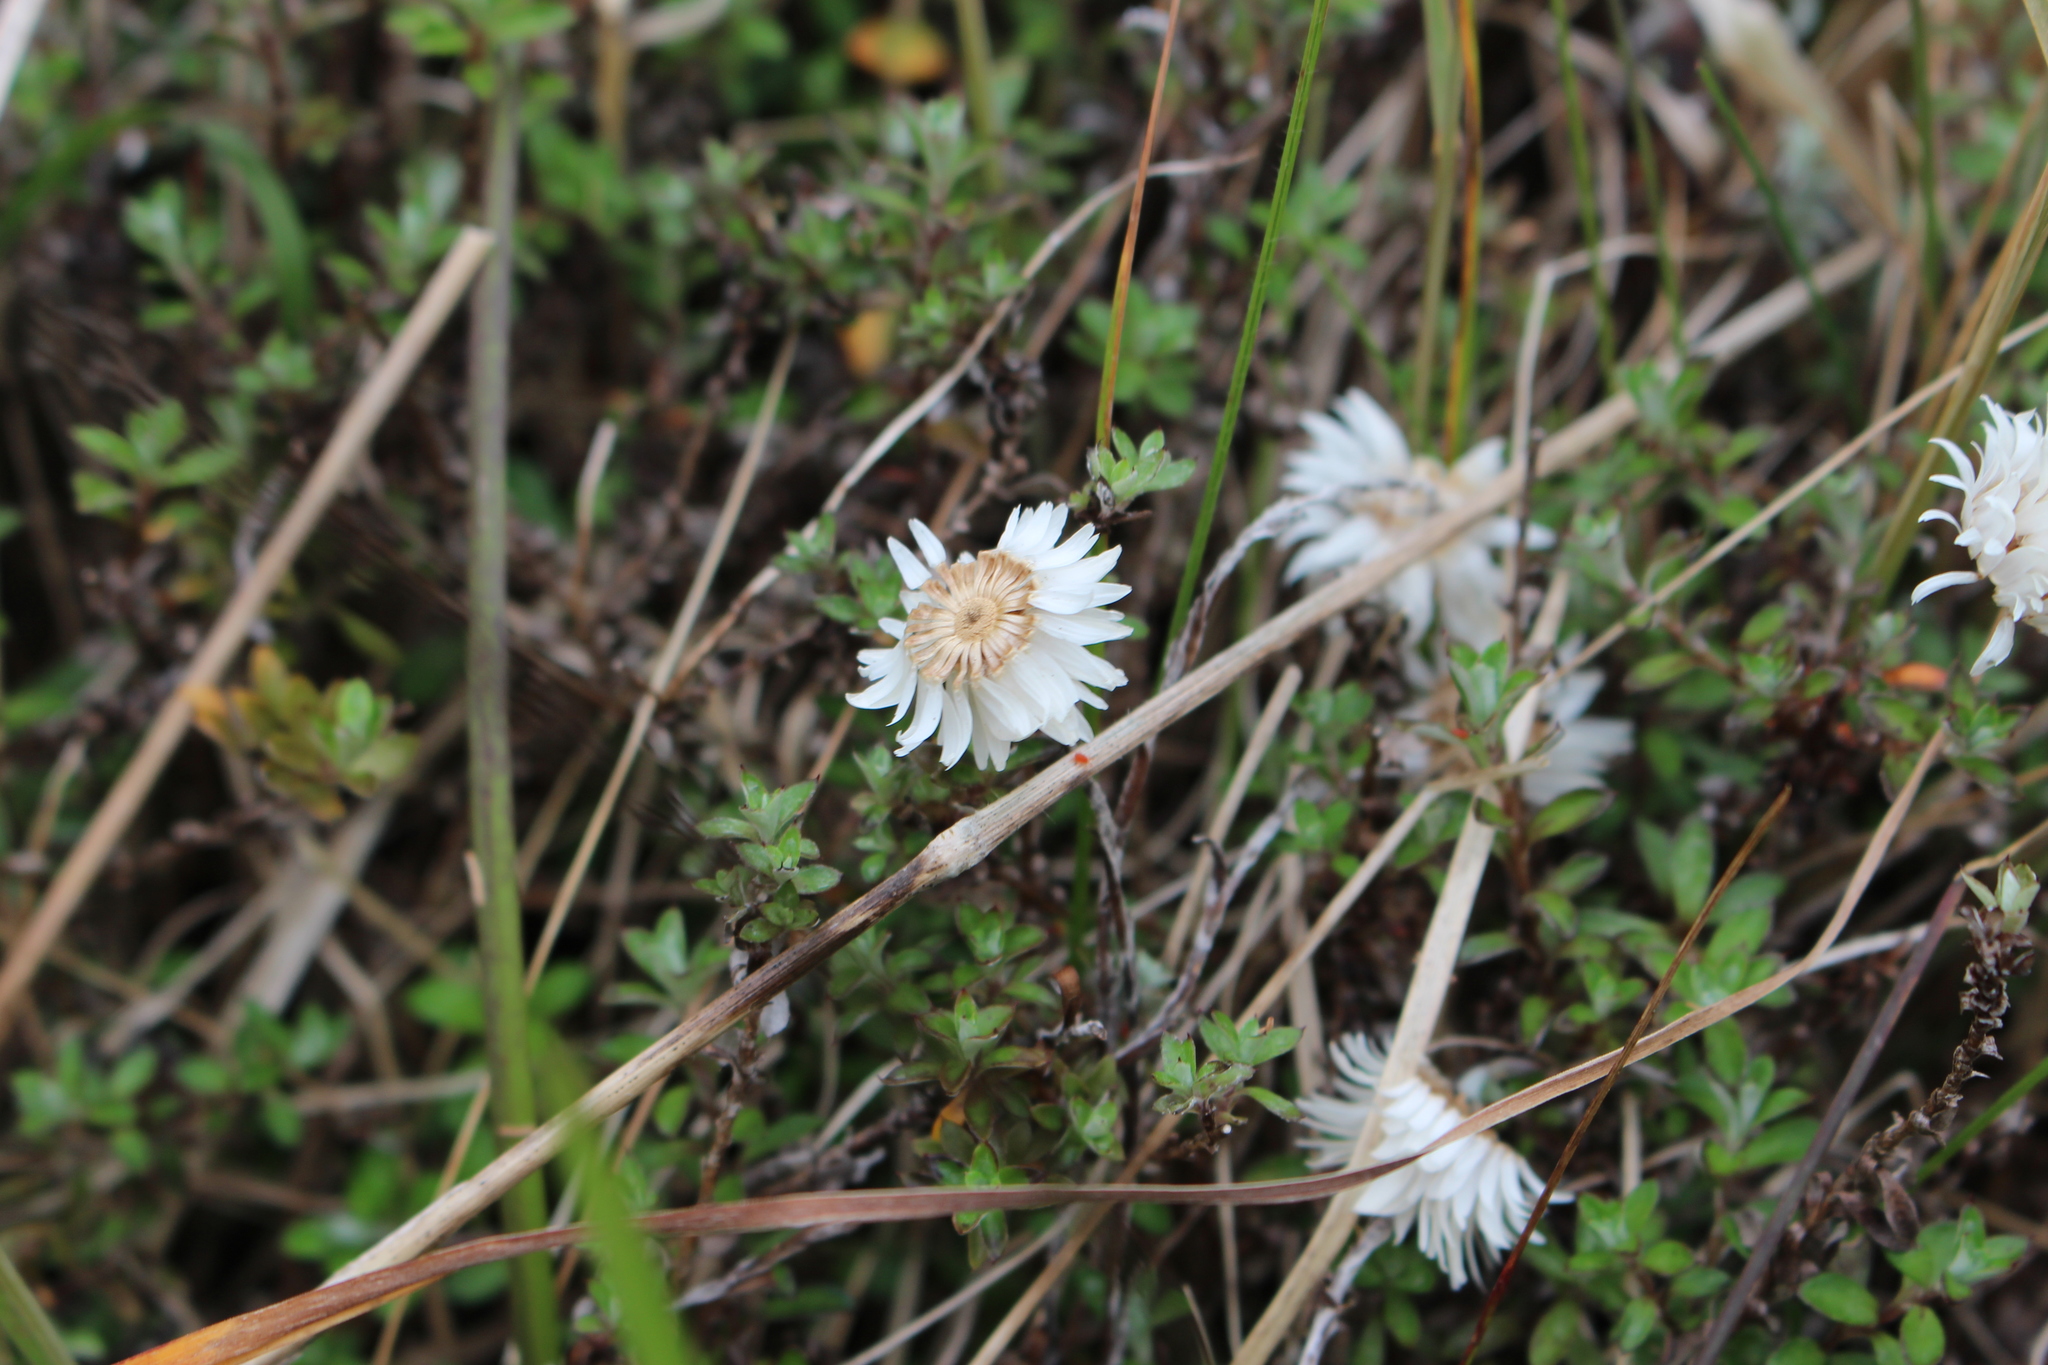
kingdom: Plantae
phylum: Tracheophyta
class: Magnoliopsida
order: Asterales
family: Asteraceae
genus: Anaphalioides
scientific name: Anaphalioides bellidioides
